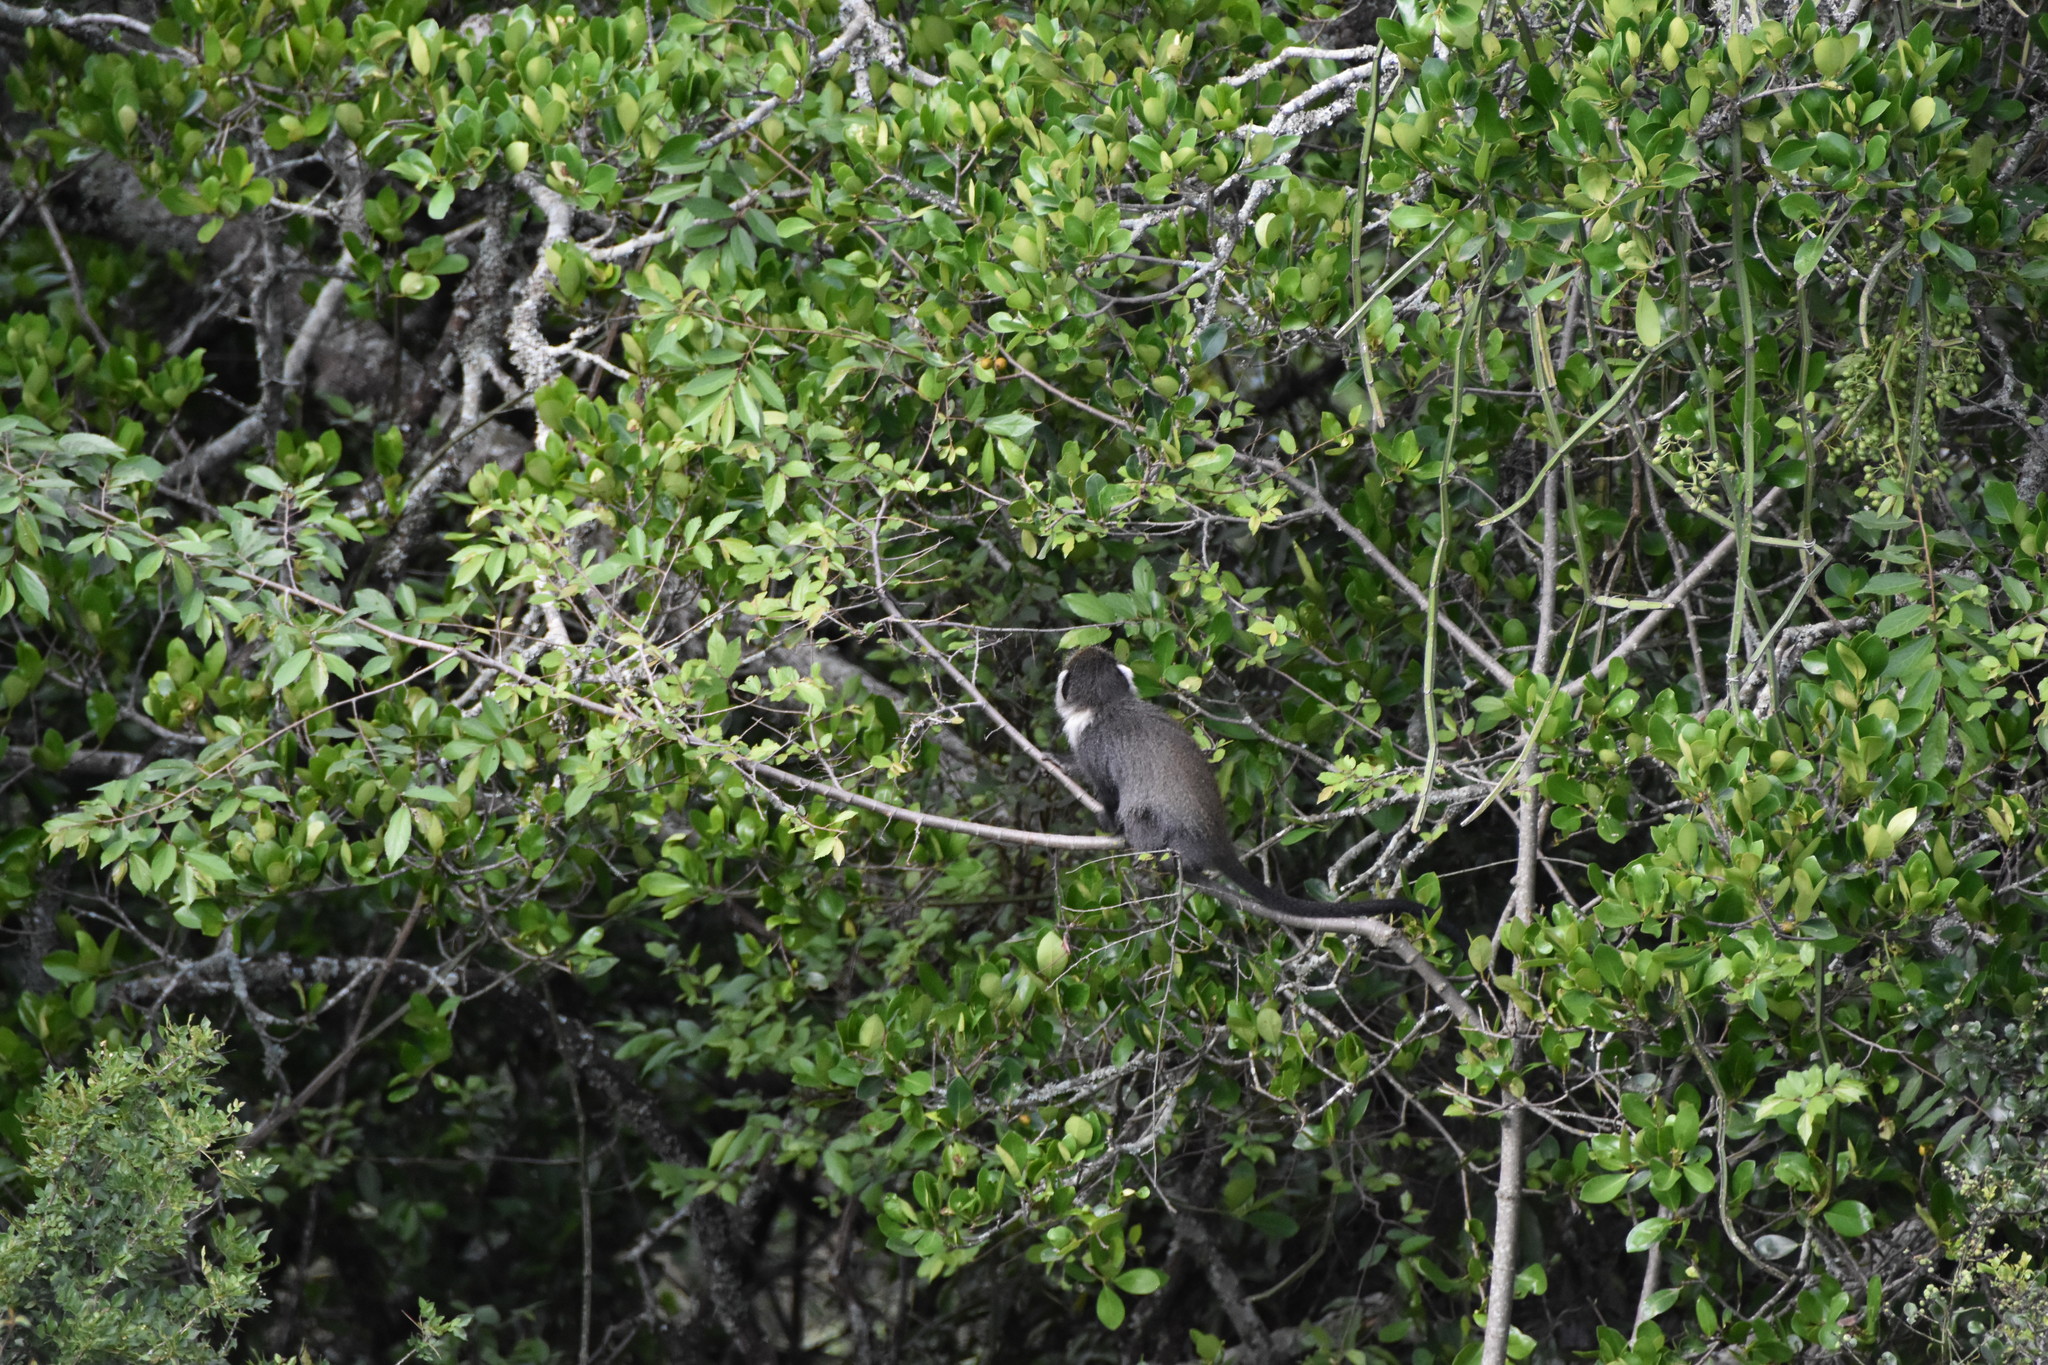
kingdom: Animalia
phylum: Chordata
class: Mammalia
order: Primates
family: Cercopithecidae
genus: Cercopithecus
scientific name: Cercopithecus mitis
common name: Blue monkey
